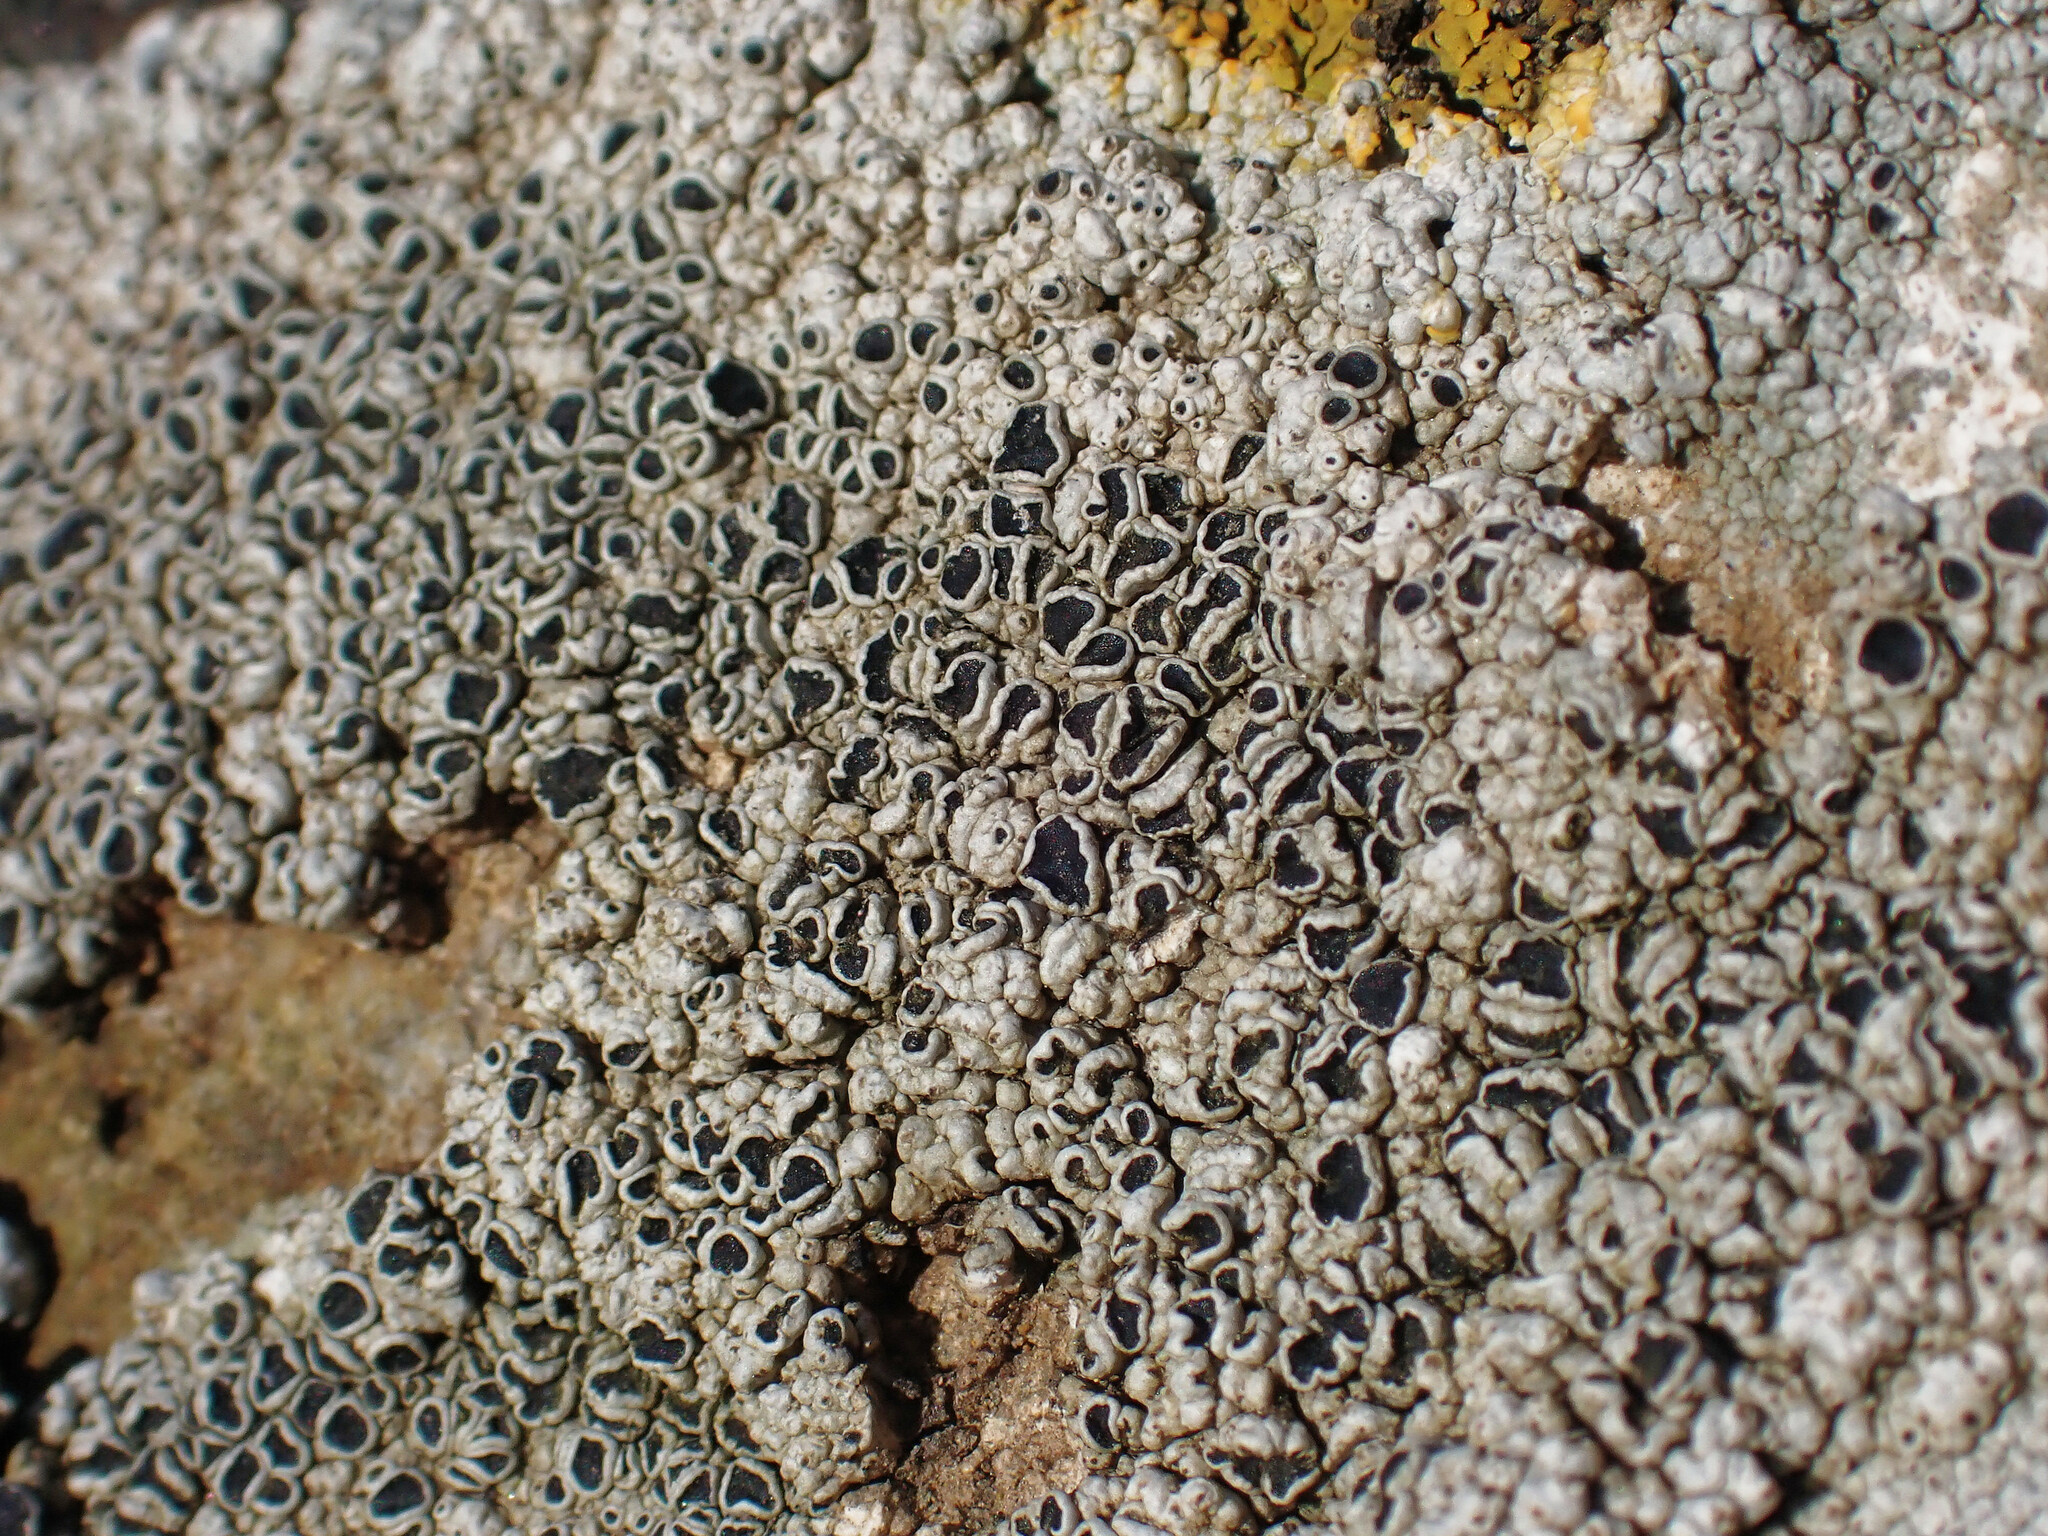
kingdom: Fungi
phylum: Ascomycota
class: Lecanoromycetes
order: Lecanorales
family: Tephromelataceae
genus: Tephromela
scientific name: Tephromela atra
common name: Black shields
